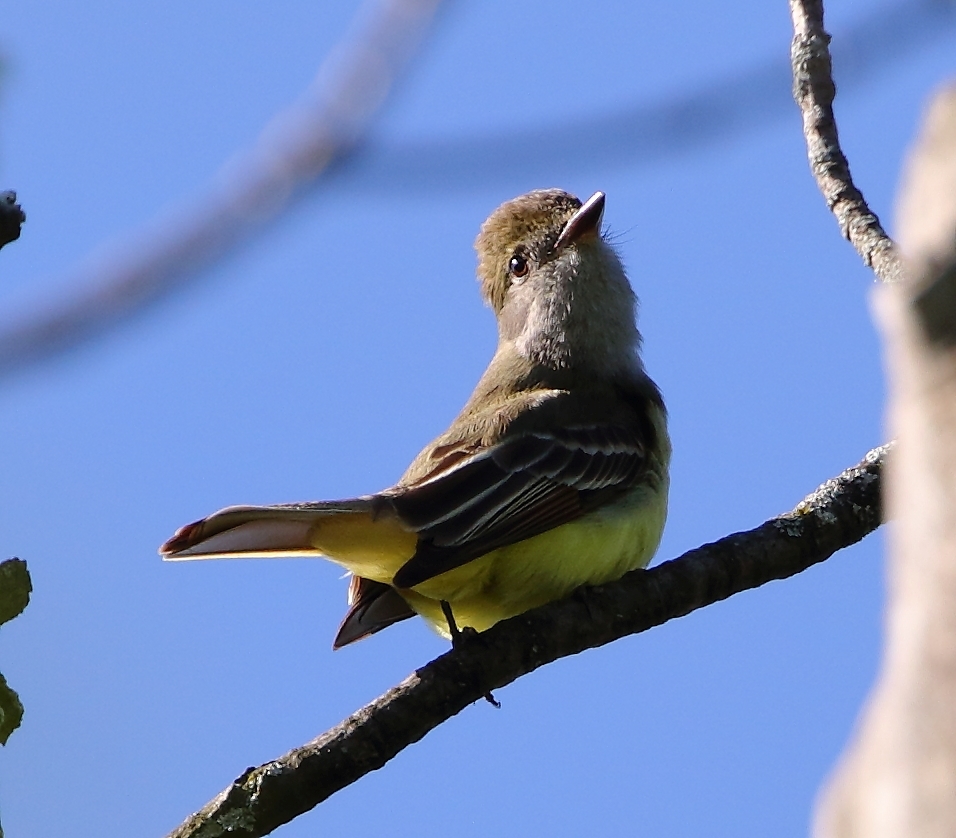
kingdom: Animalia
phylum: Chordata
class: Aves
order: Passeriformes
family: Tyrannidae
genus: Myiarchus
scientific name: Myiarchus crinitus
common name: Great crested flycatcher
